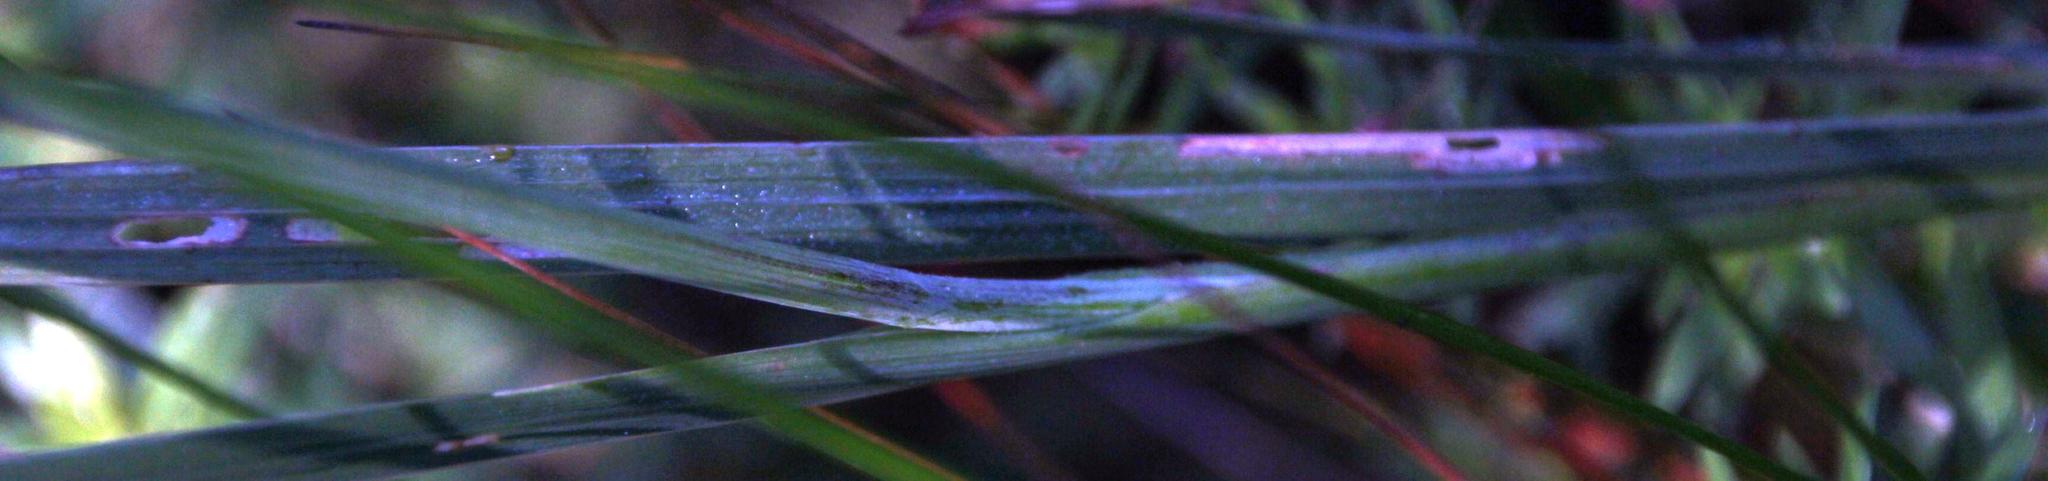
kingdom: Plantae
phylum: Tracheophyta
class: Liliopsida
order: Asparagales
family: Iridaceae
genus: Gladiolus
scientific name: Gladiolus undulatus
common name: Large painted-lady
